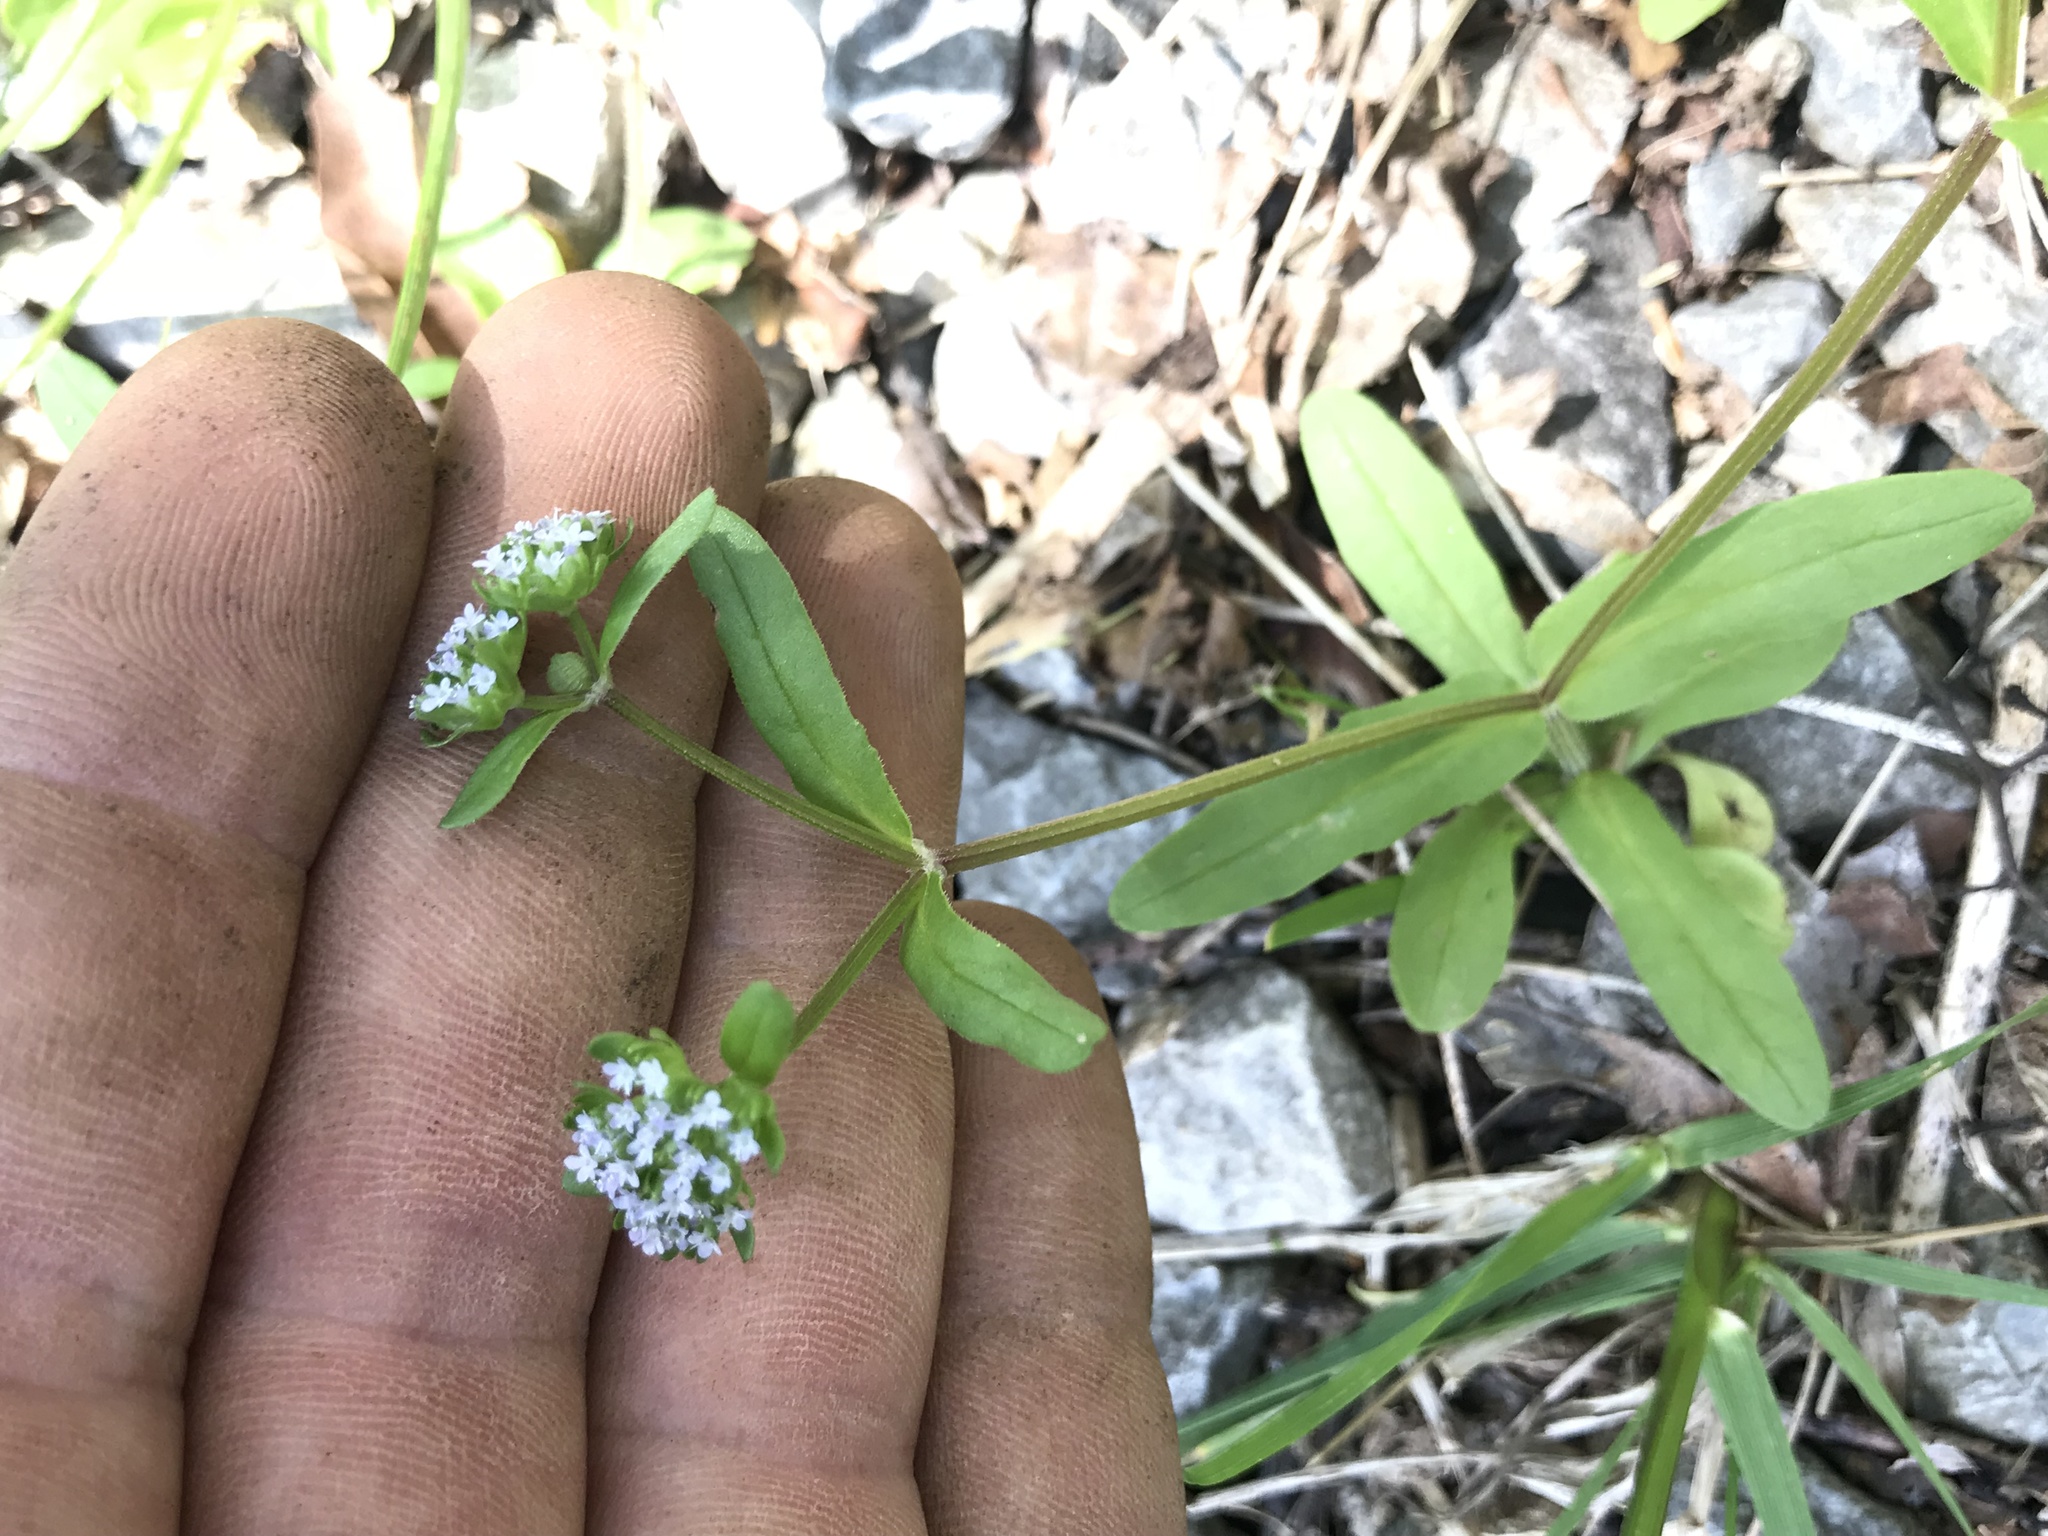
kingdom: Plantae
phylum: Tracheophyta
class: Magnoliopsida
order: Dipsacales
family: Caprifoliaceae
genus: Valerianella
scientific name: Valerianella locusta
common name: Common cornsalad
